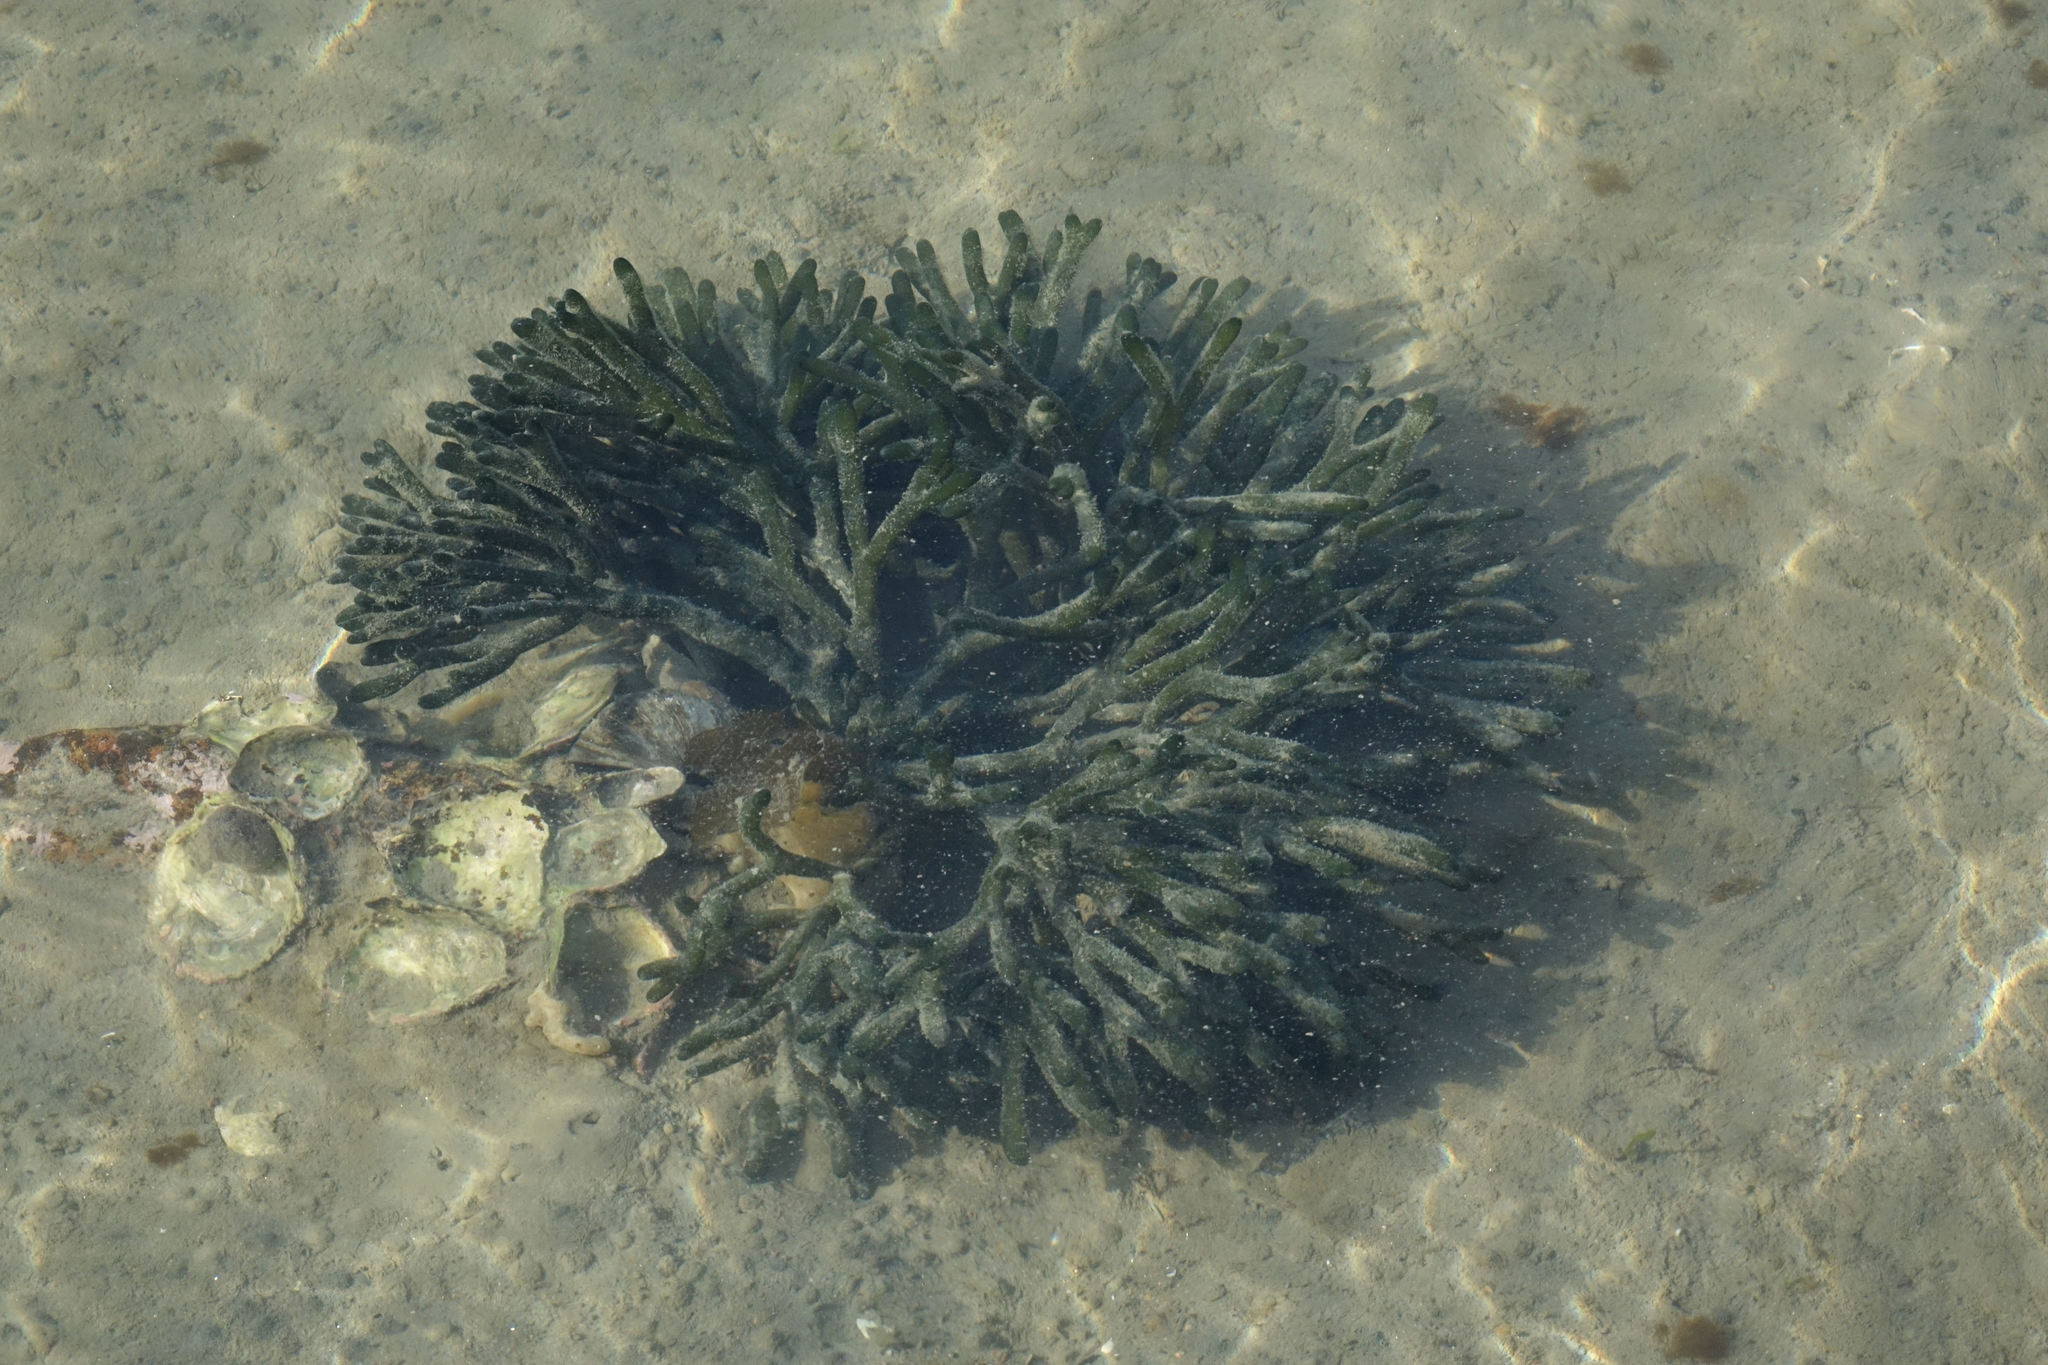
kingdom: Plantae
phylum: Chlorophyta
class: Ulvophyceae
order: Bryopsidales
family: Codiaceae
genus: Codium
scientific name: Codium fragile
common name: Dead man's fingers
